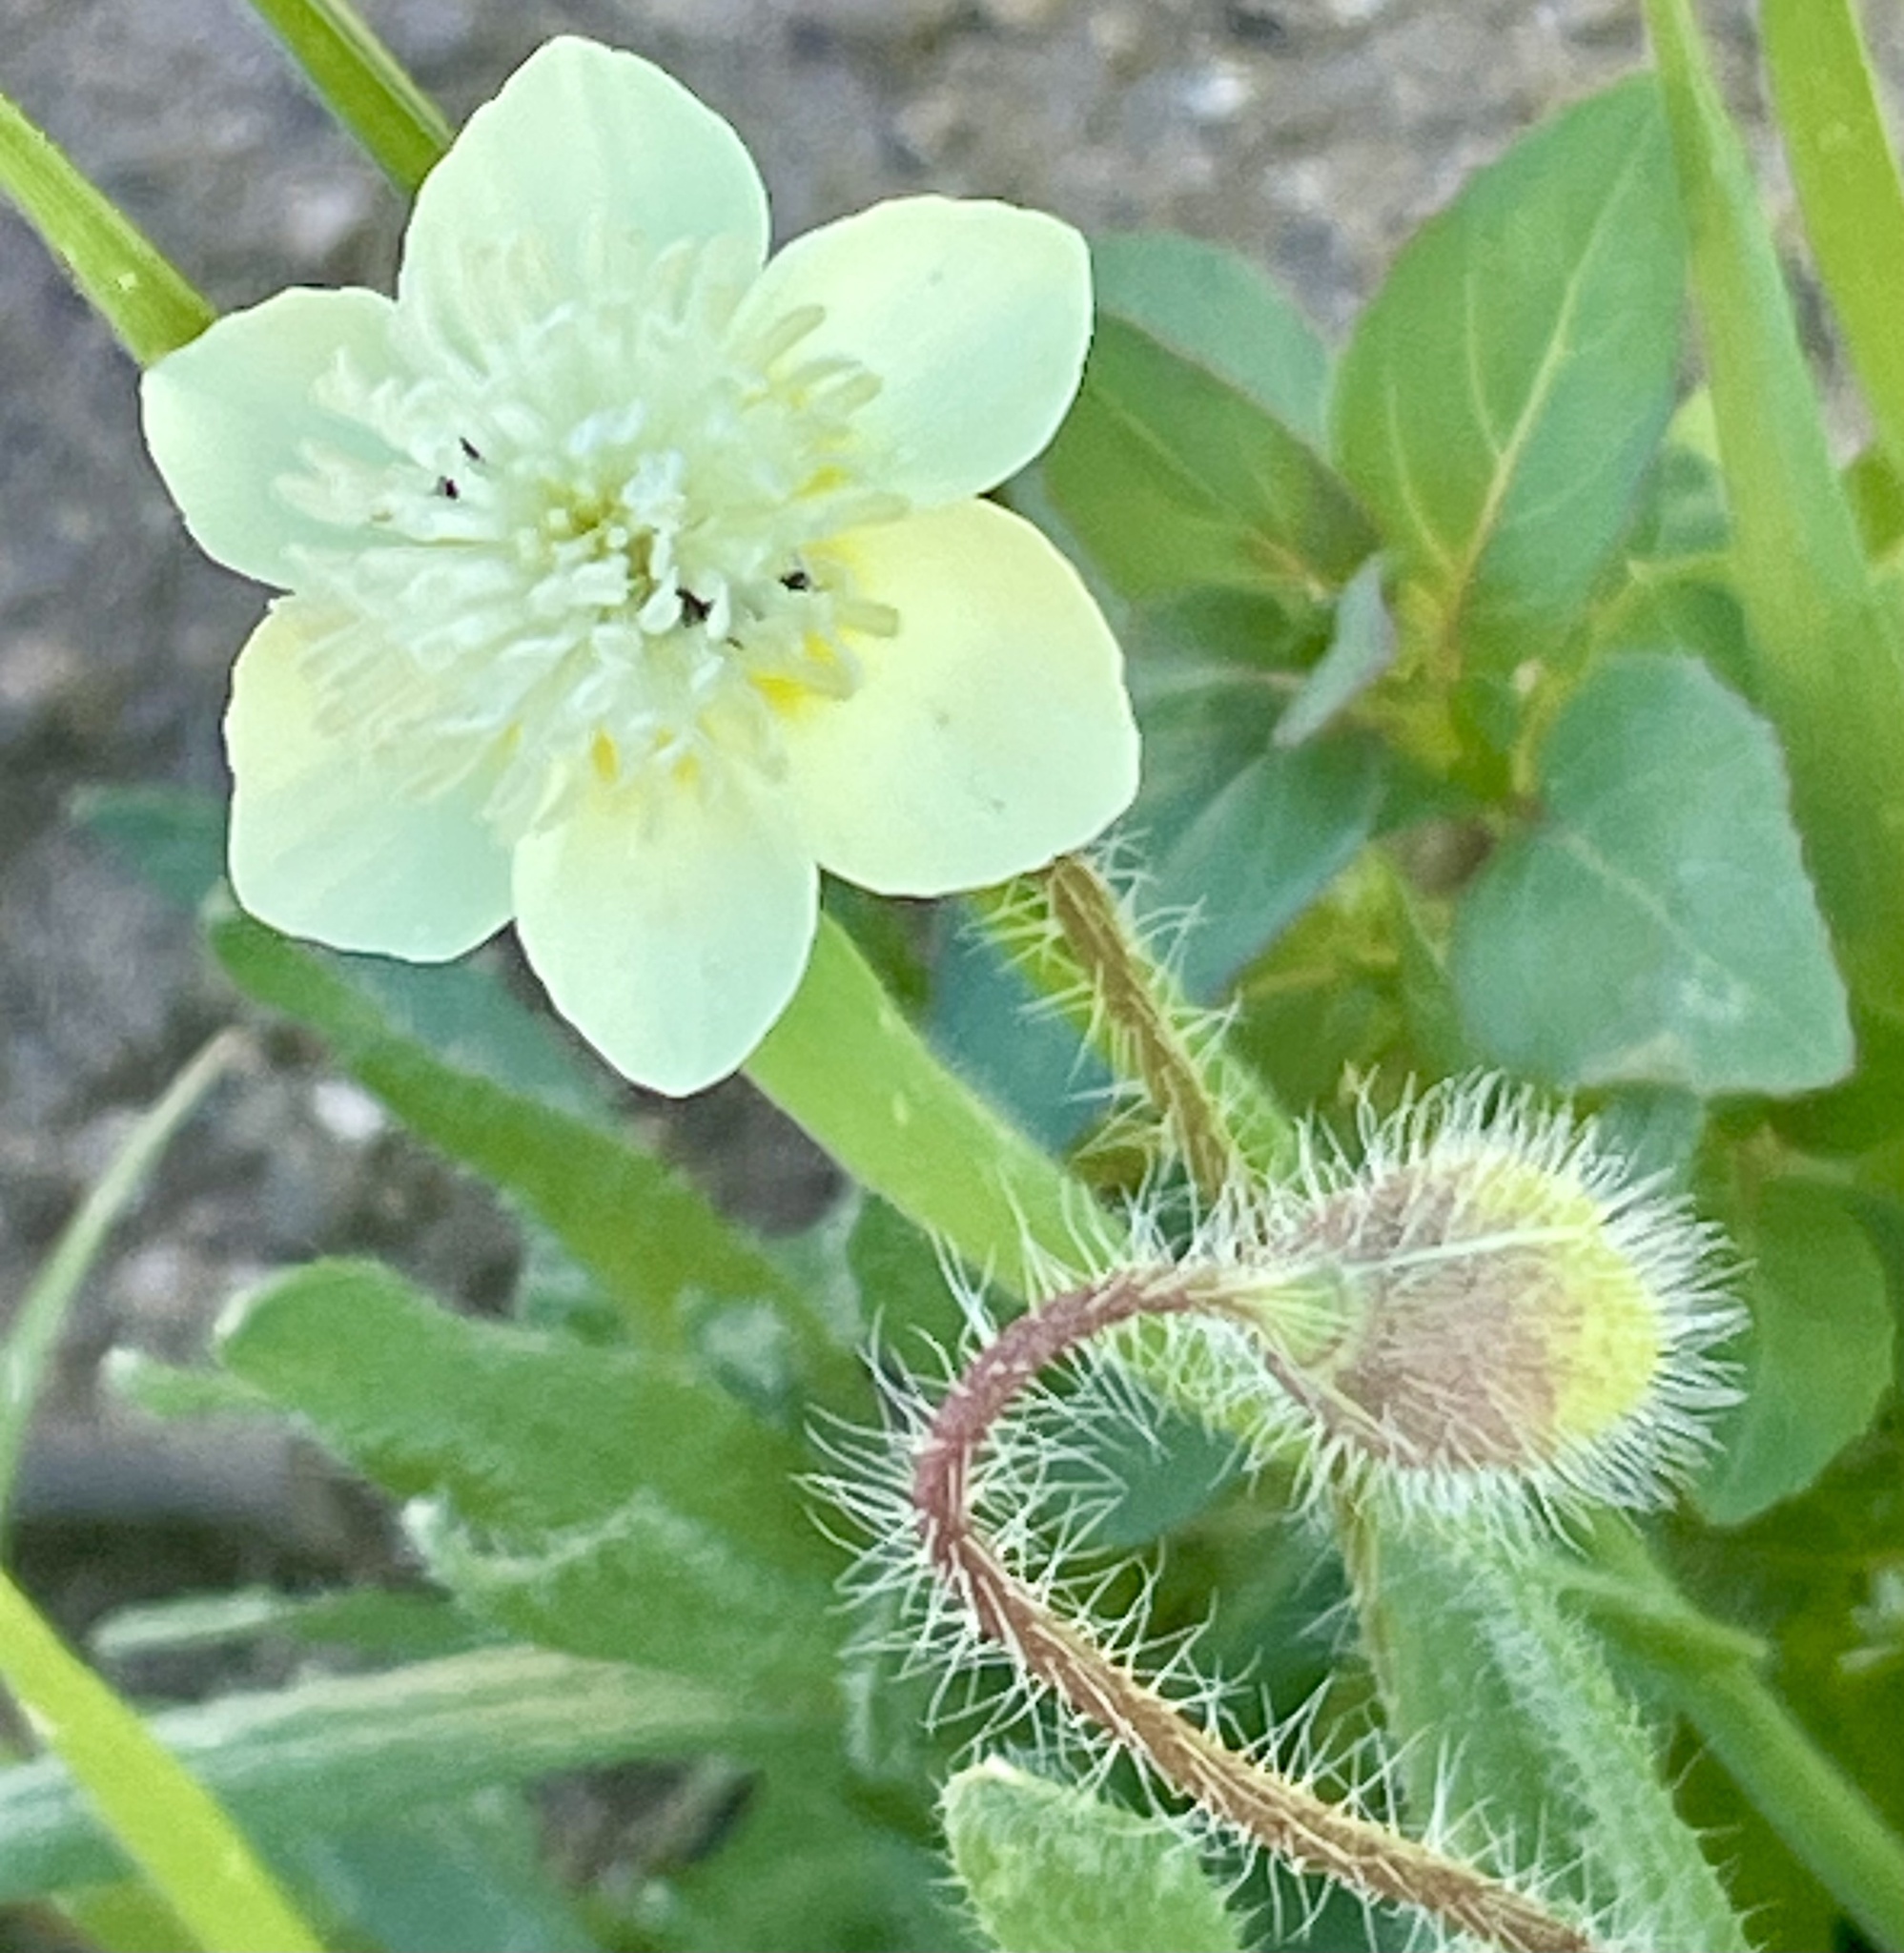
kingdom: Plantae
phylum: Tracheophyta
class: Magnoliopsida
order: Ranunculales
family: Papaveraceae
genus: Platystemon
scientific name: Platystemon californicus
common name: Cream-cups
